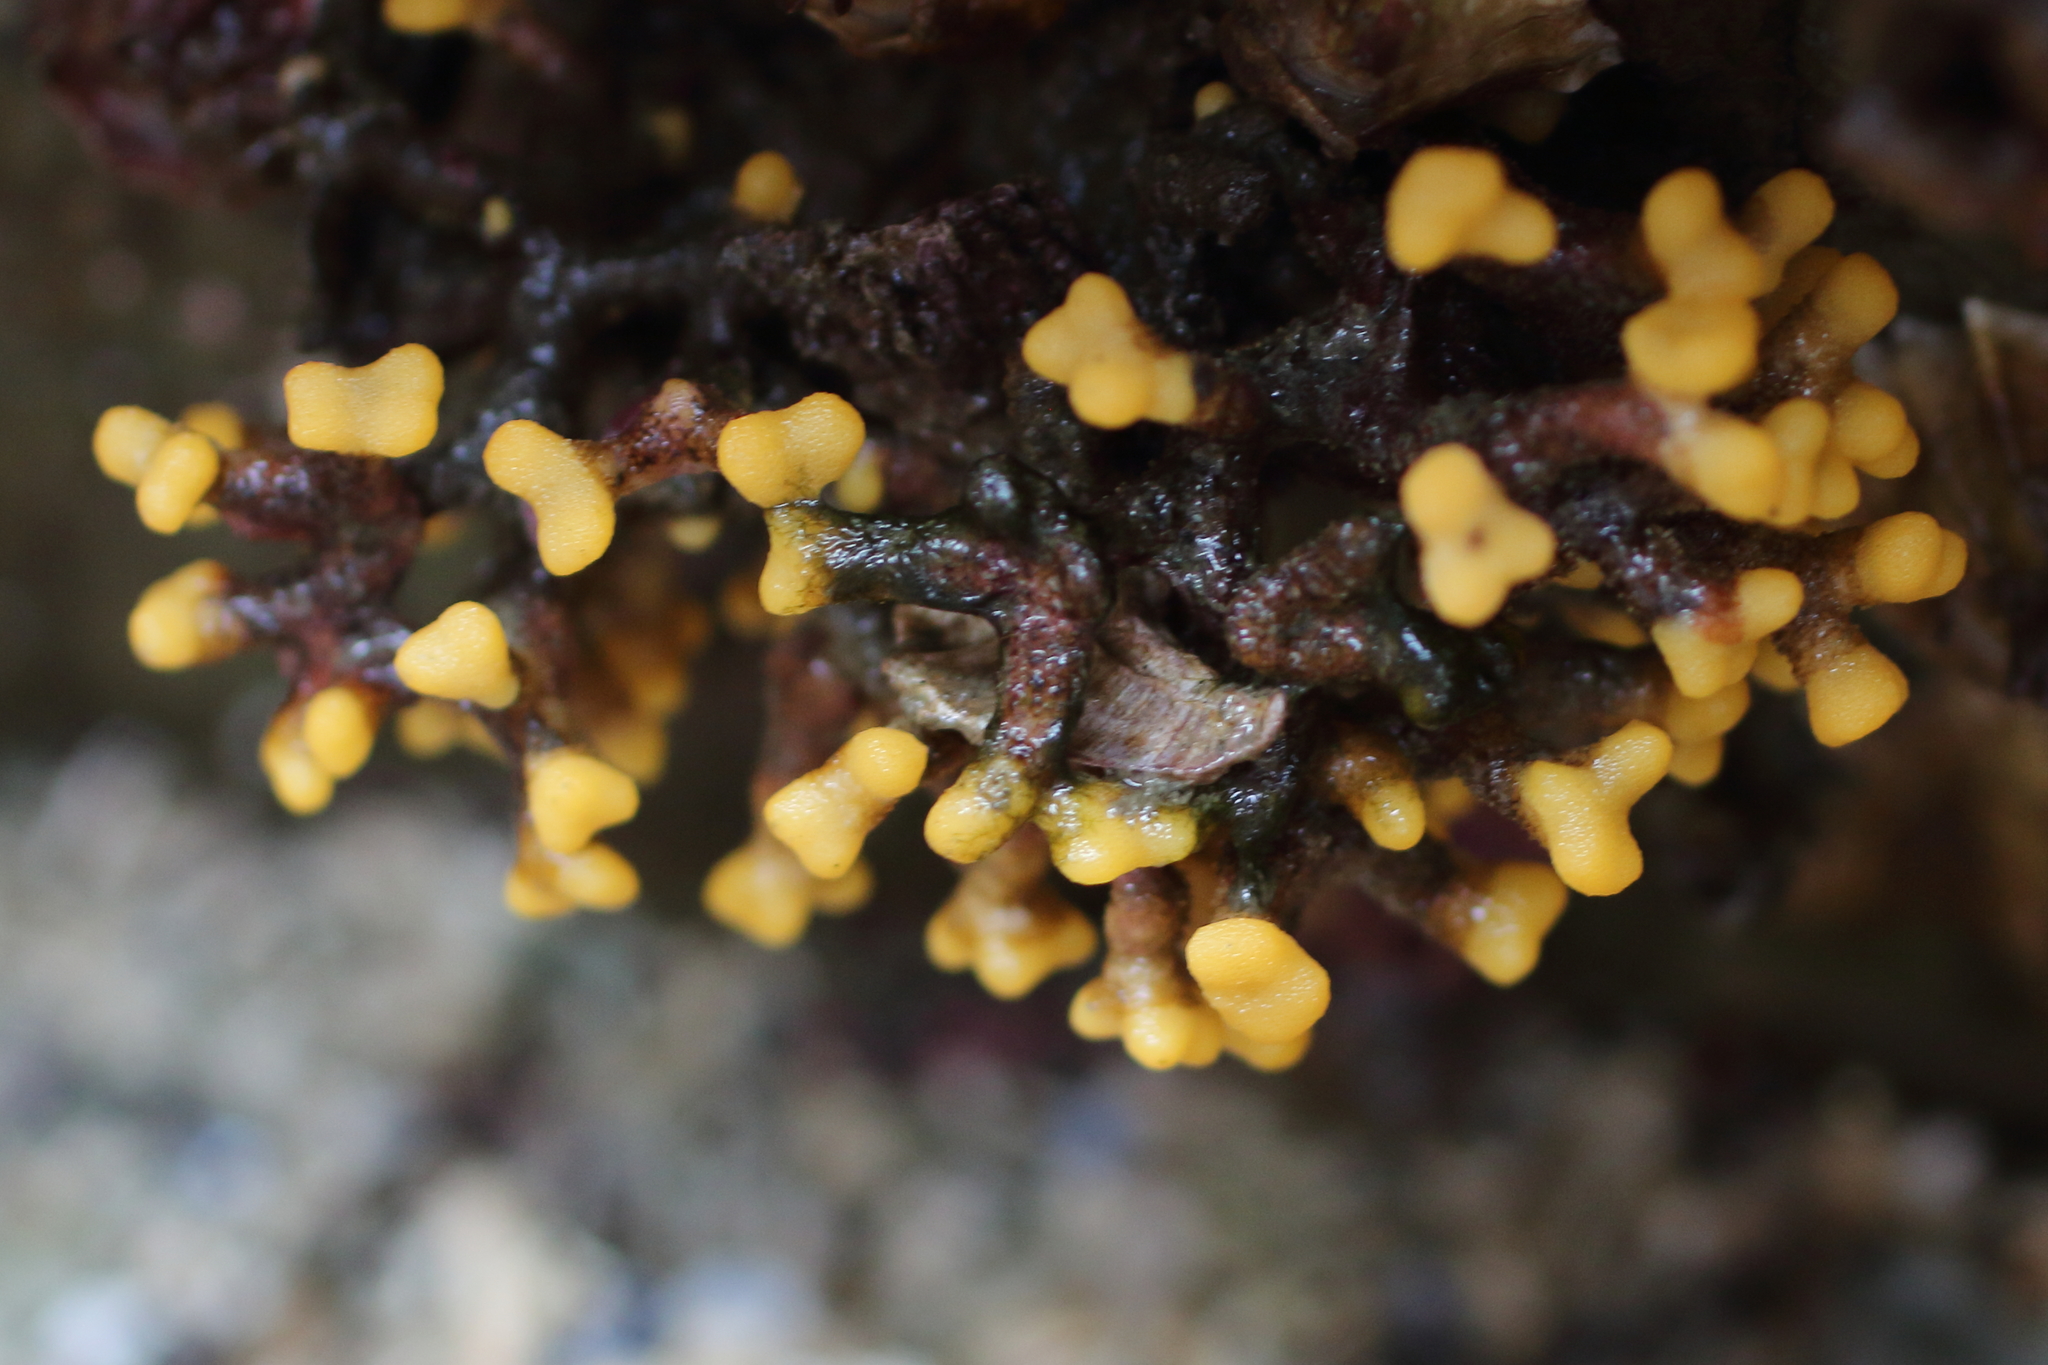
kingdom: Animalia
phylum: Bryozoa
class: Stenolaemata
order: Cyclostomatida
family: Heteroporidae
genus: Heteropora
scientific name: Heteropora pacifica
